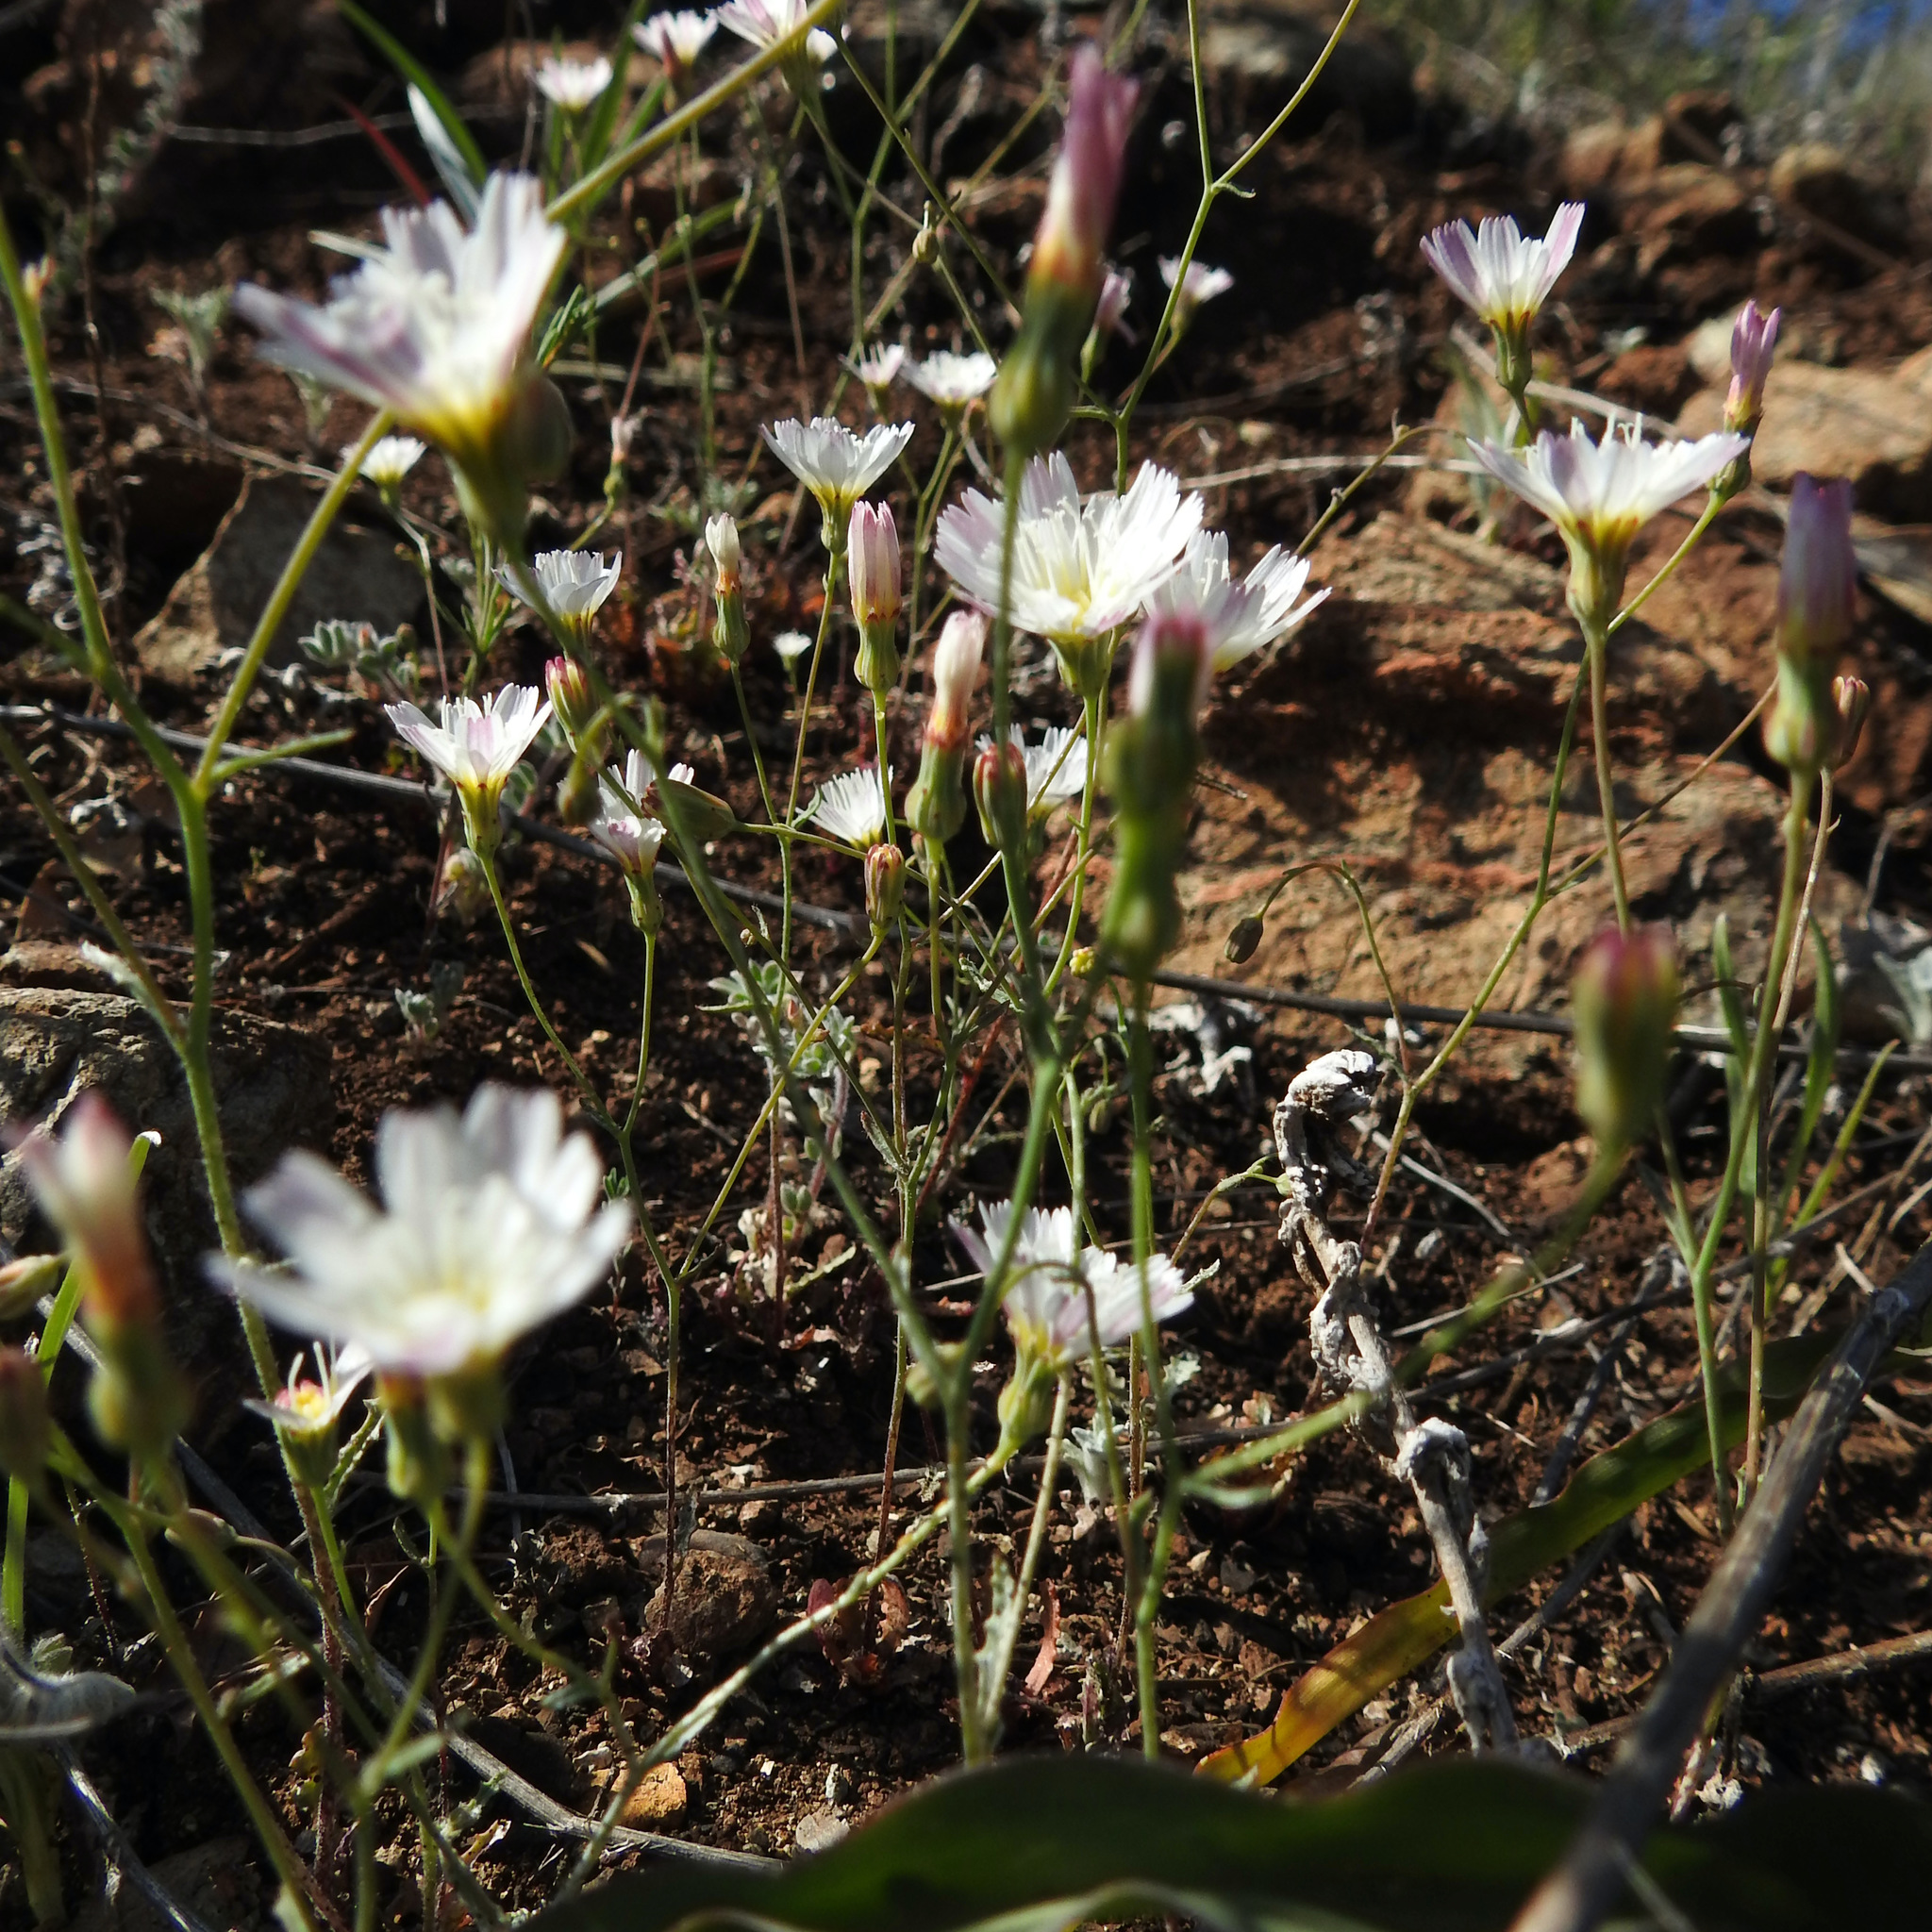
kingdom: Plantae
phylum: Tracheophyta
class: Magnoliopsida
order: Asterales
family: Asteraceae
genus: Malacothrix
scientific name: Malacothrix floccifera
